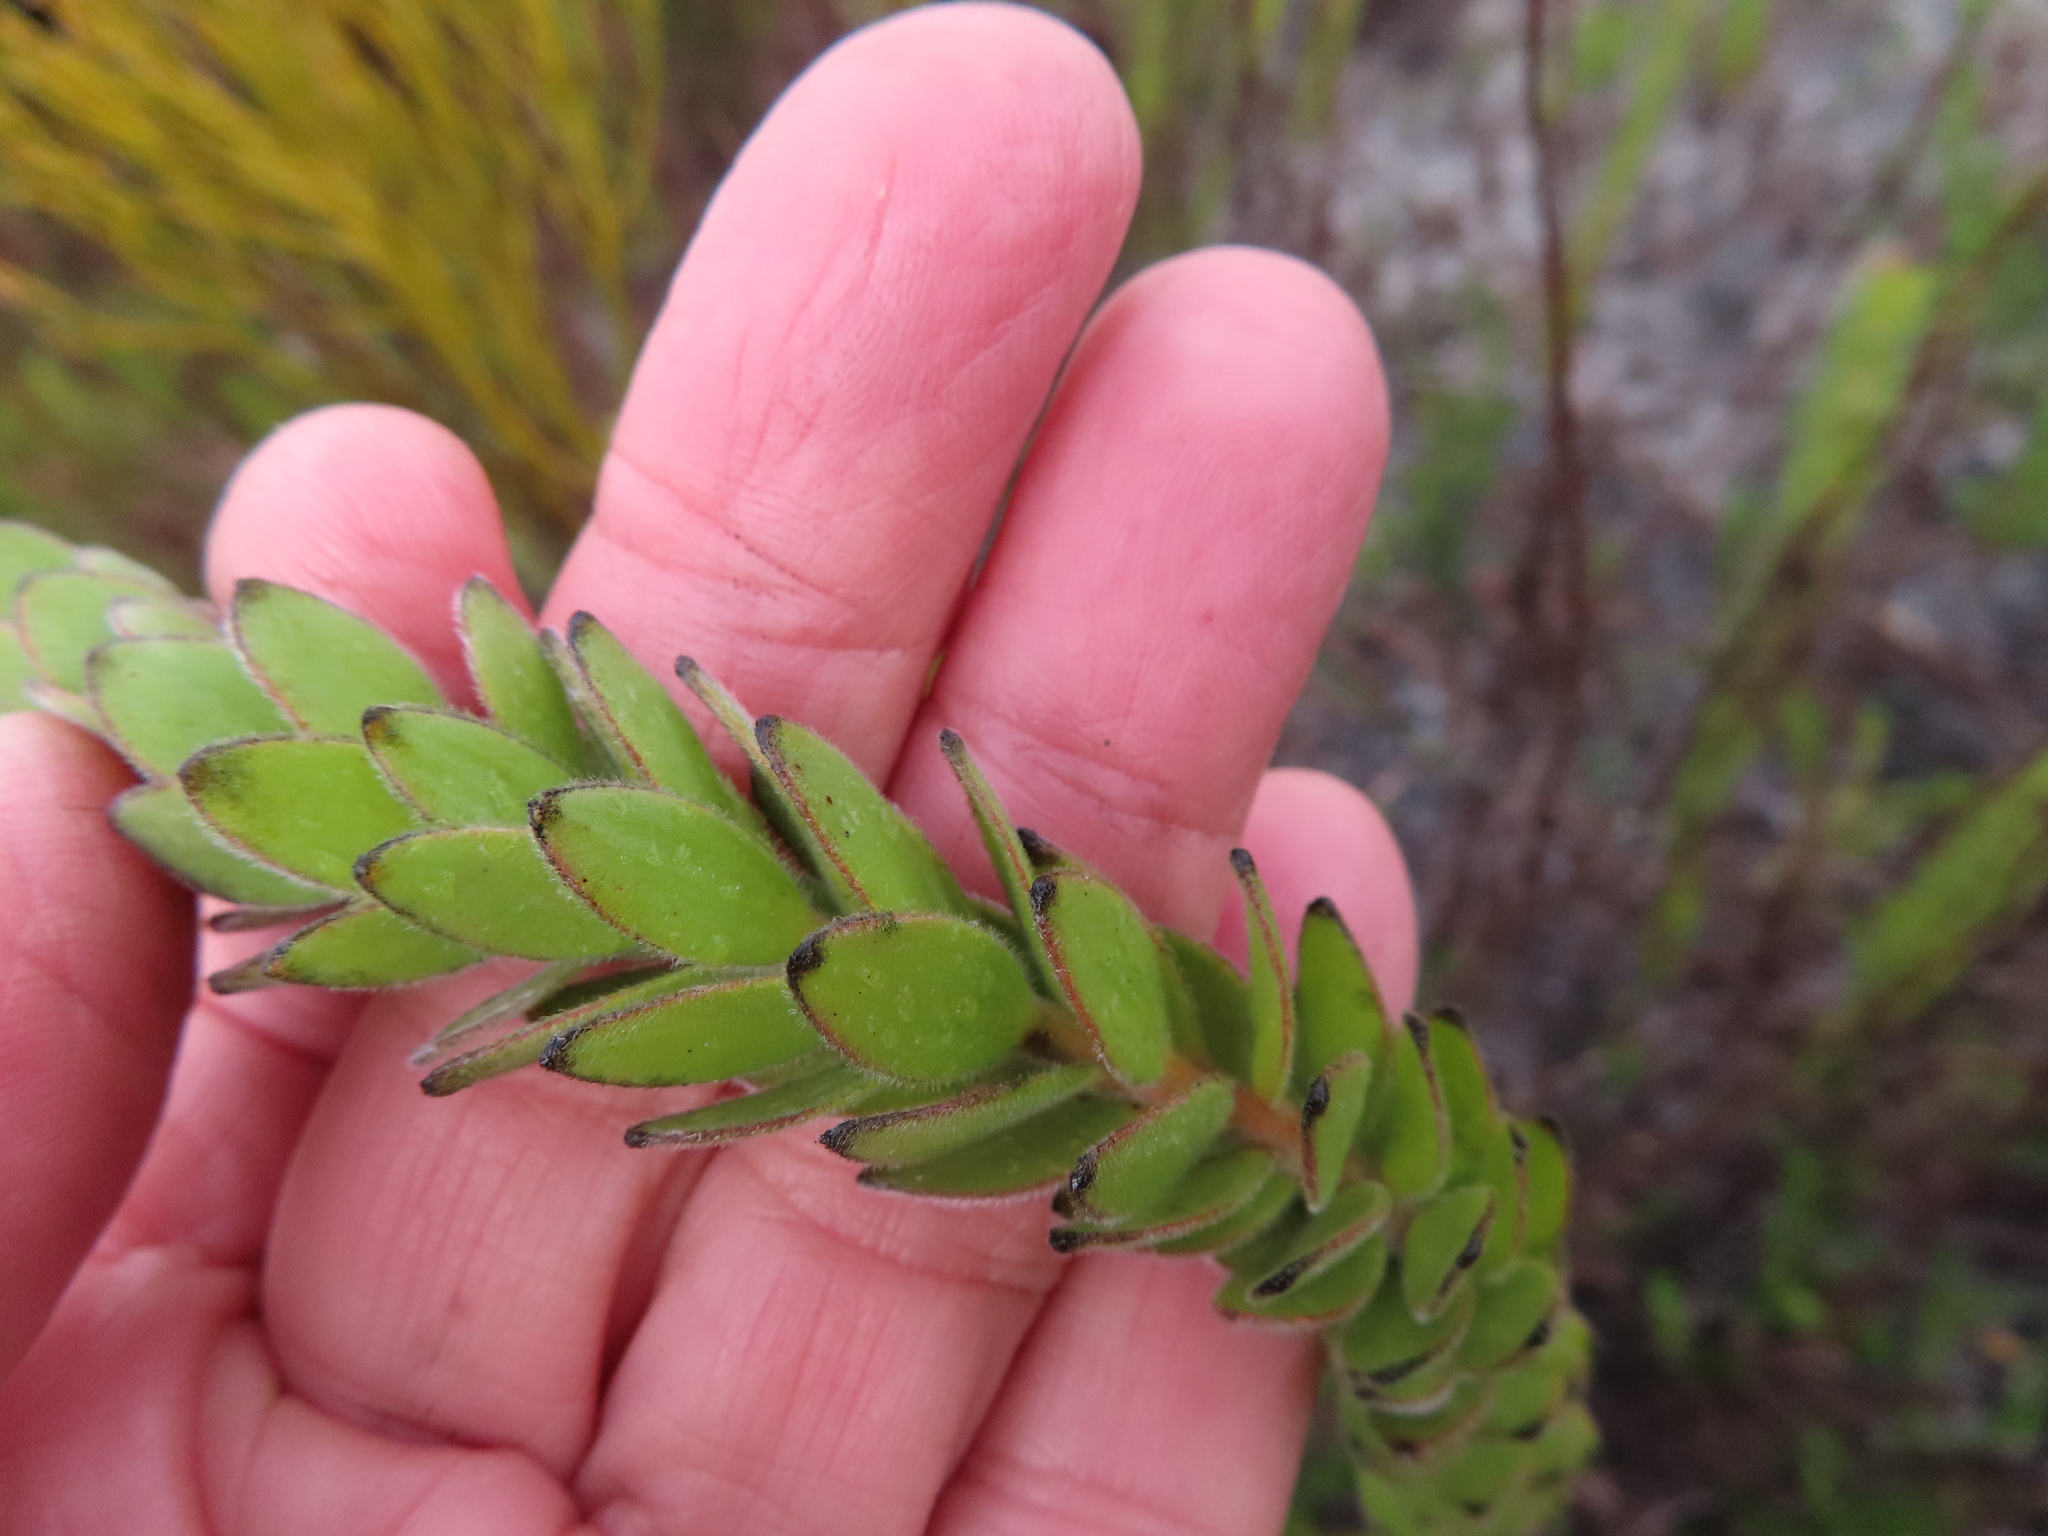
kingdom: Plantae
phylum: Tracheophyta
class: Magnoliopsida
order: Proteales
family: Proteaceae
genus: Diastella
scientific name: Diastella thymelaeoides
